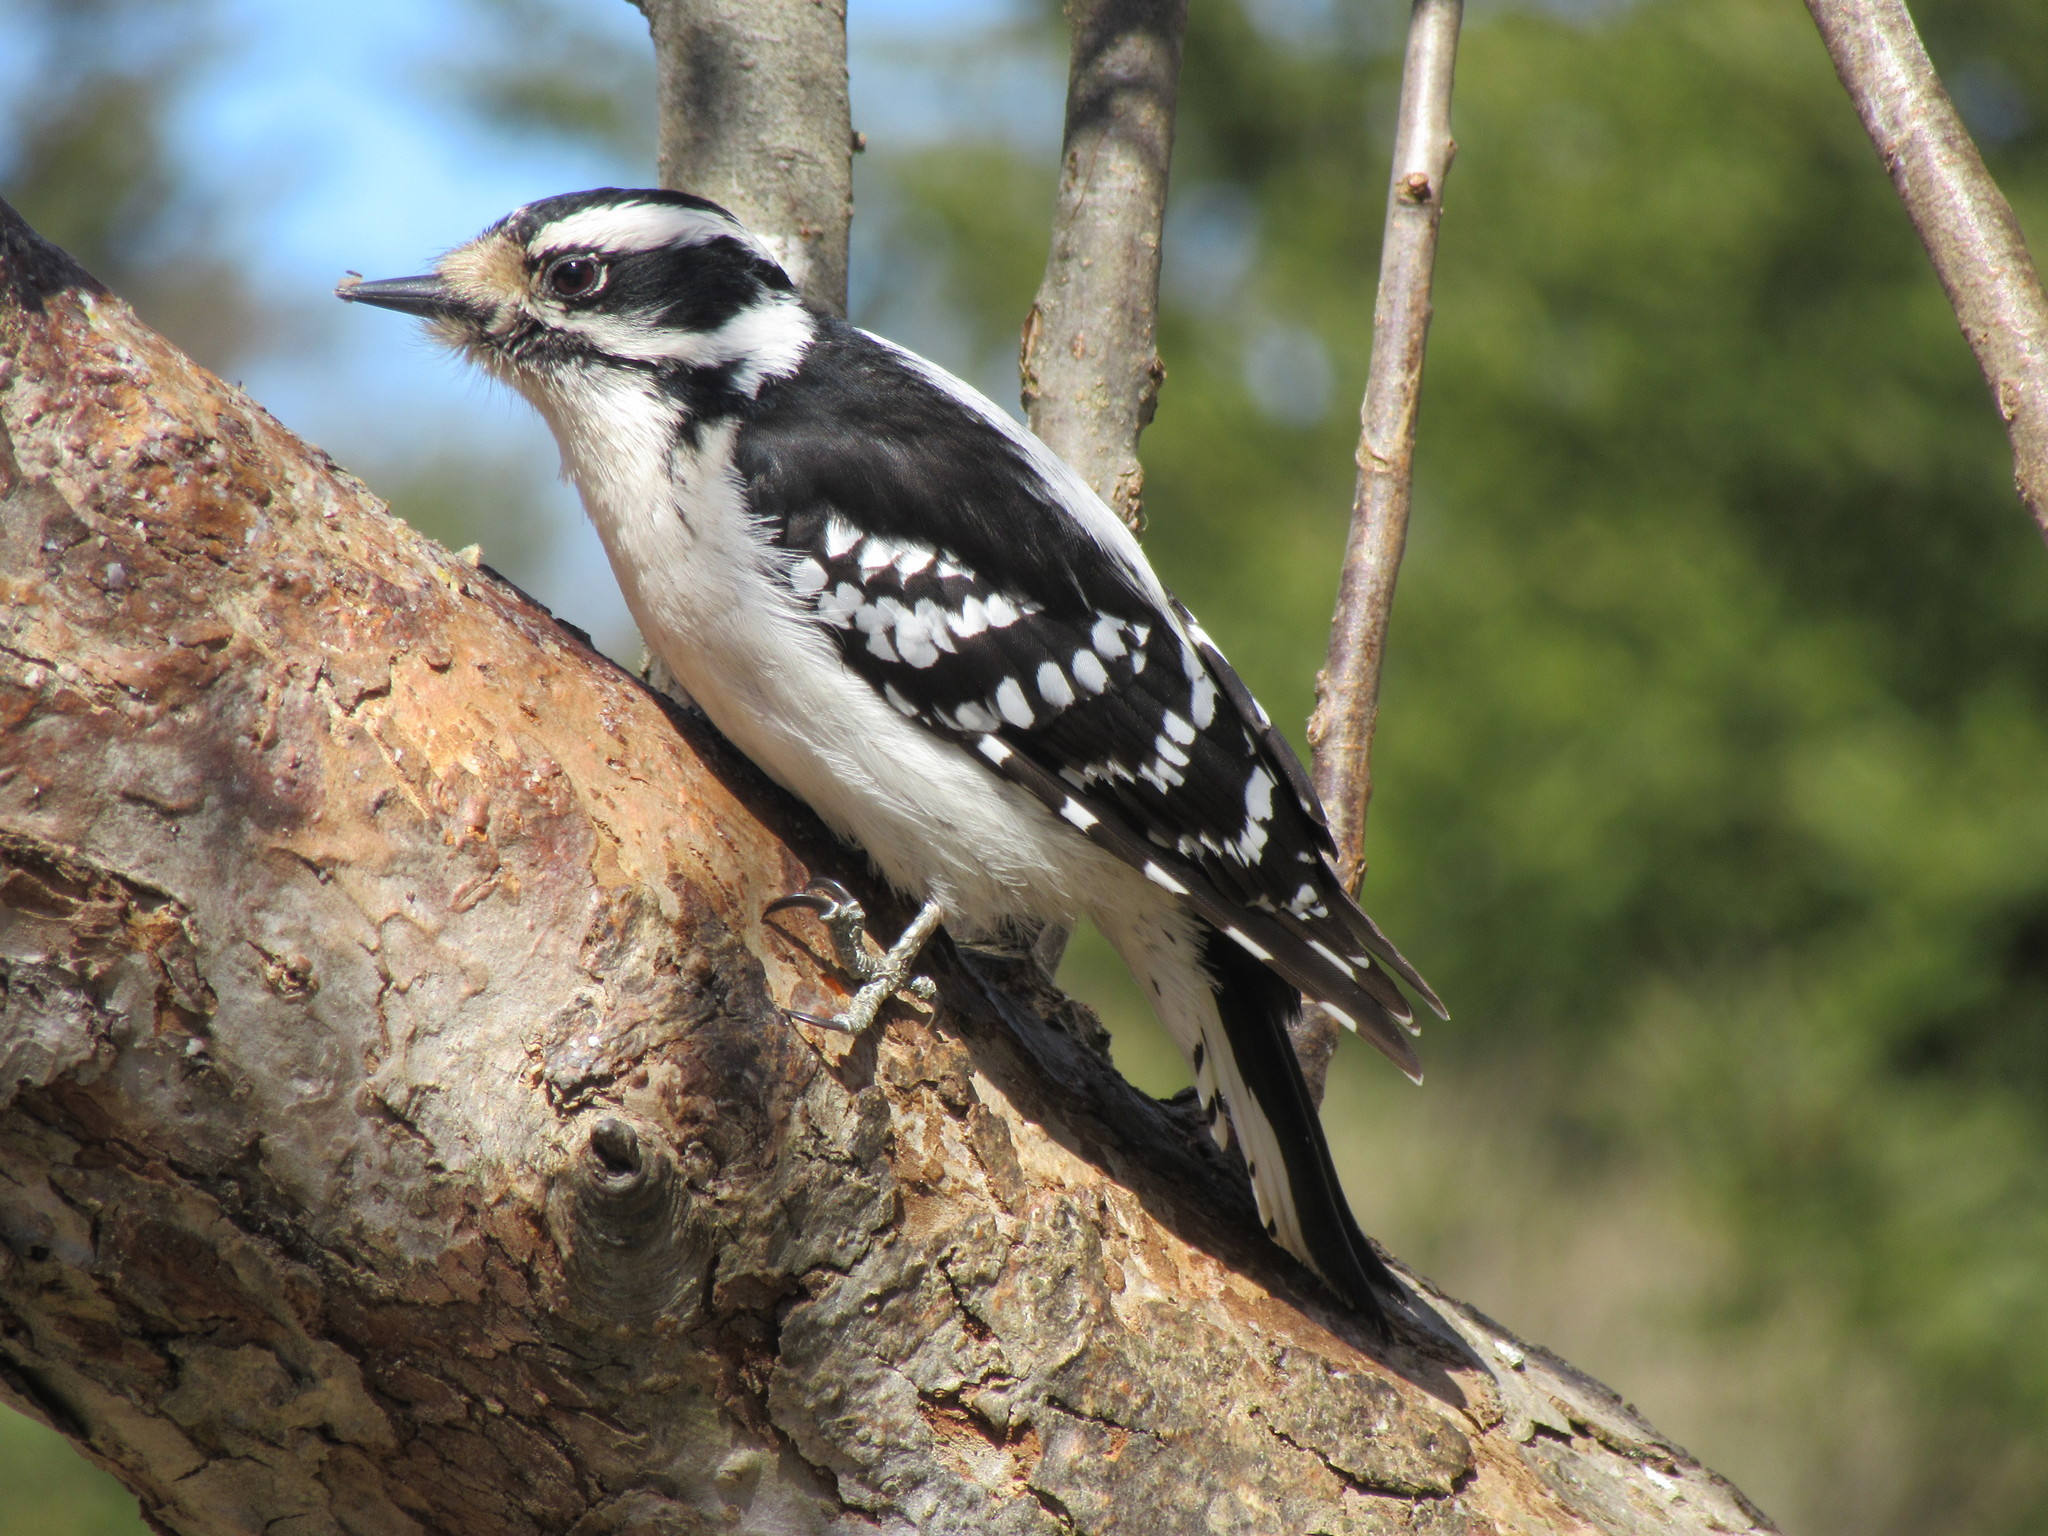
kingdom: Animalia
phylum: Chordata
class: Aves
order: Piciformes
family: Picidae
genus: Dryobates
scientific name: Dryobates pubescens
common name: Downy woodpecker
